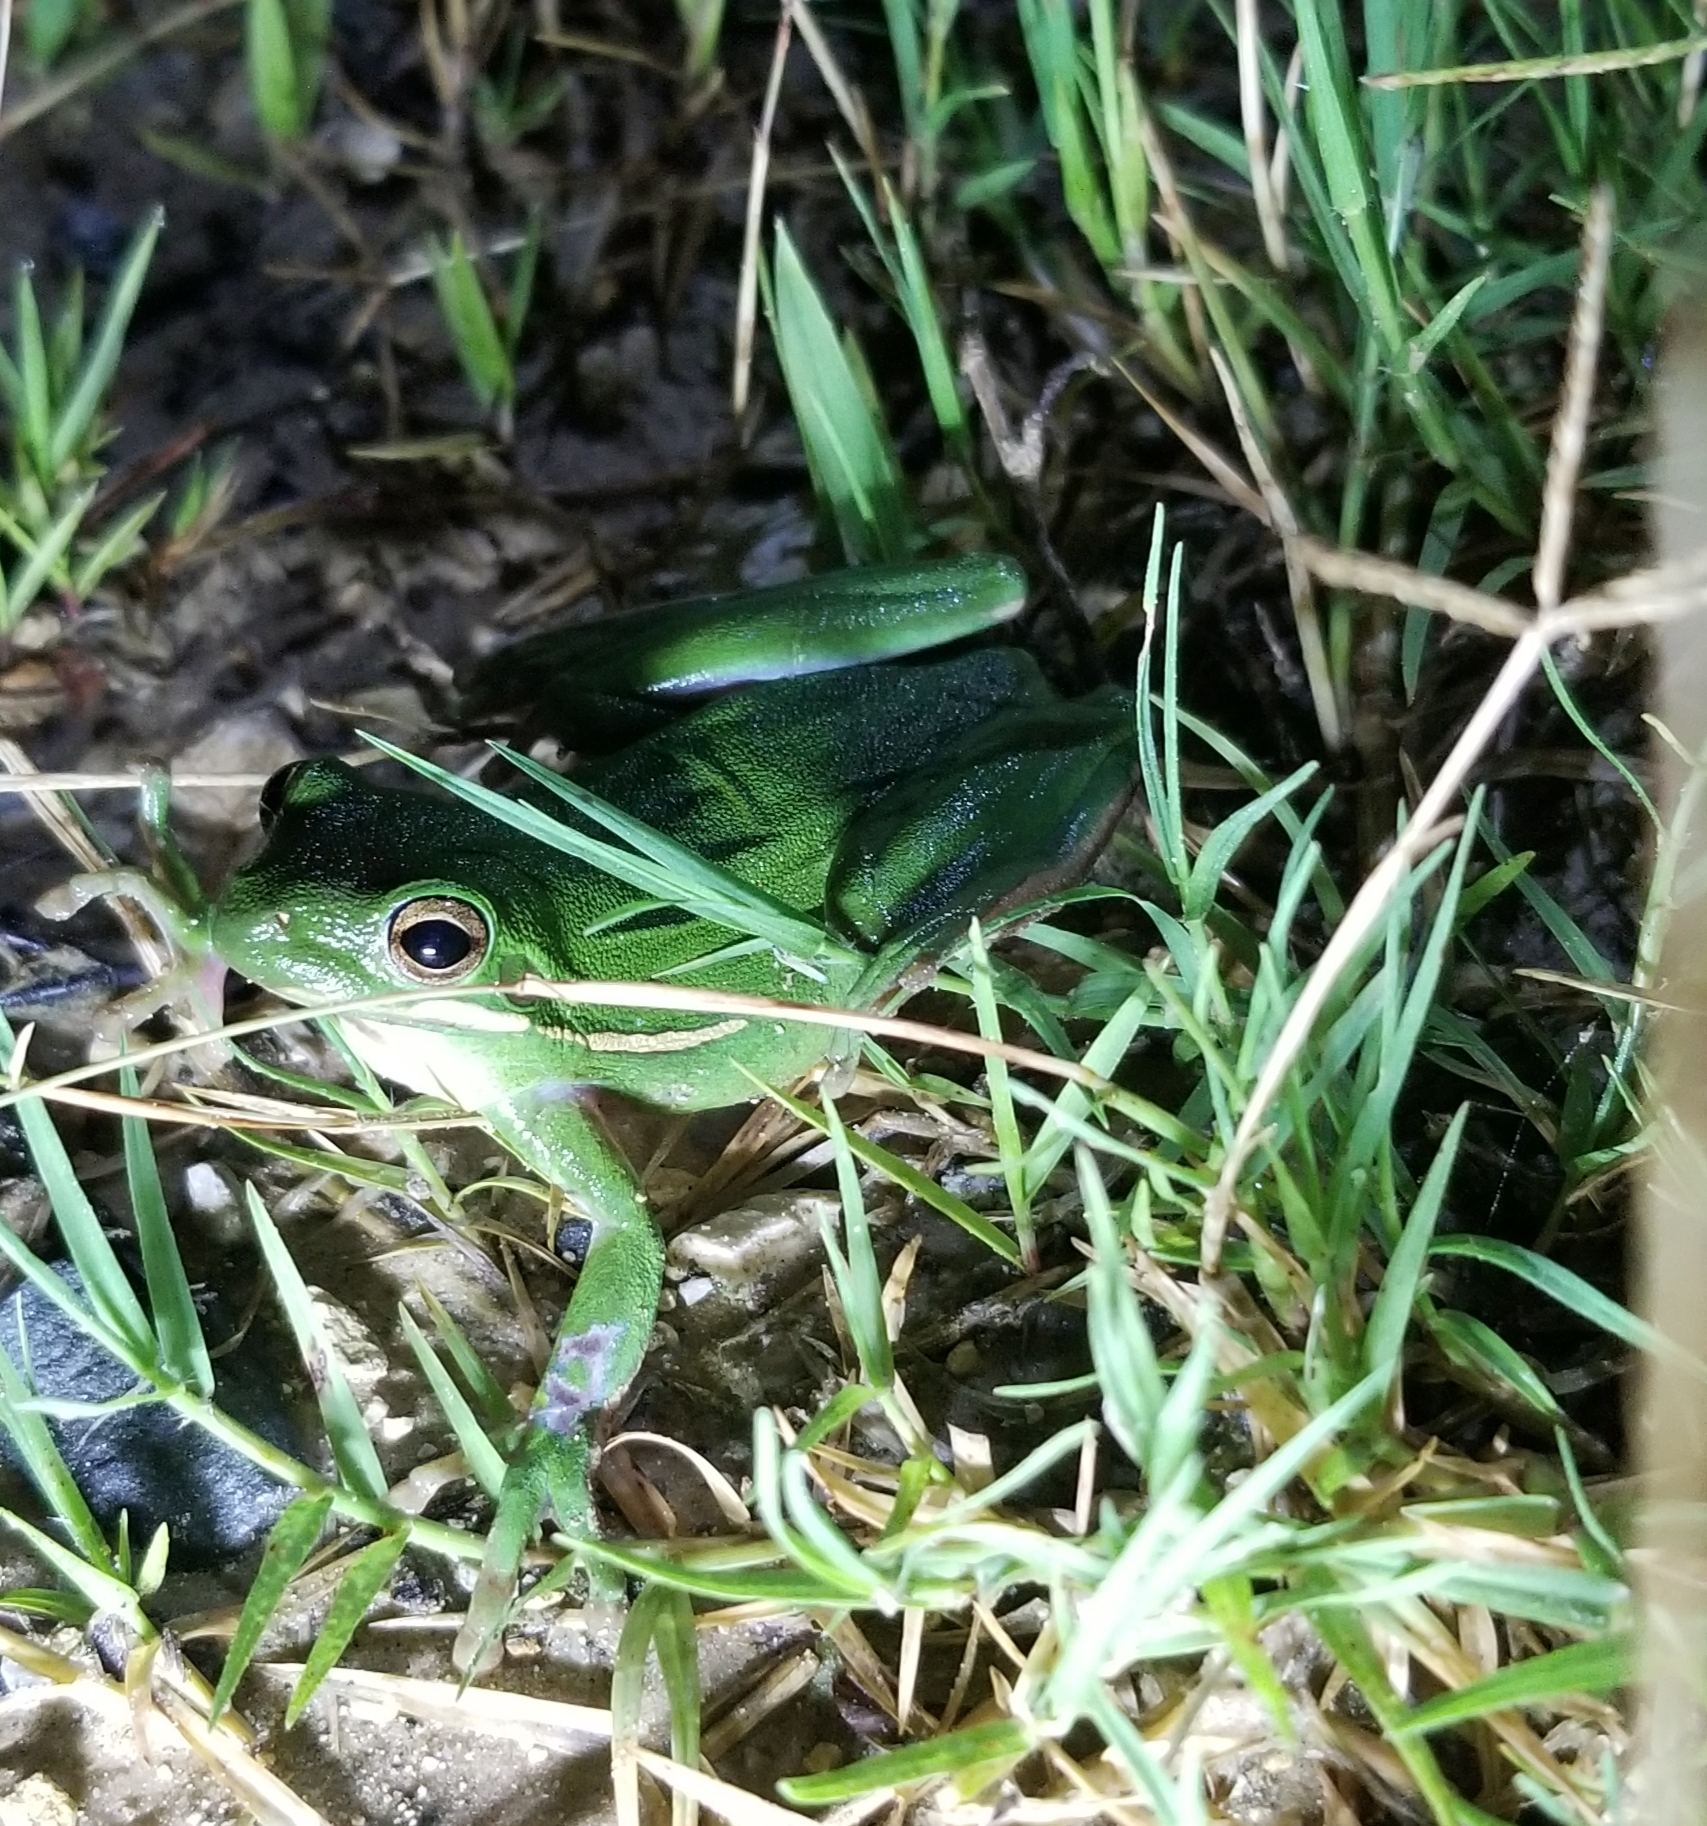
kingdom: Animalia
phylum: Chordata
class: Amphibia
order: Anura
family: Hylidae
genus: Dryophytes
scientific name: Dryophytes cinereus
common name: Green treefrog
